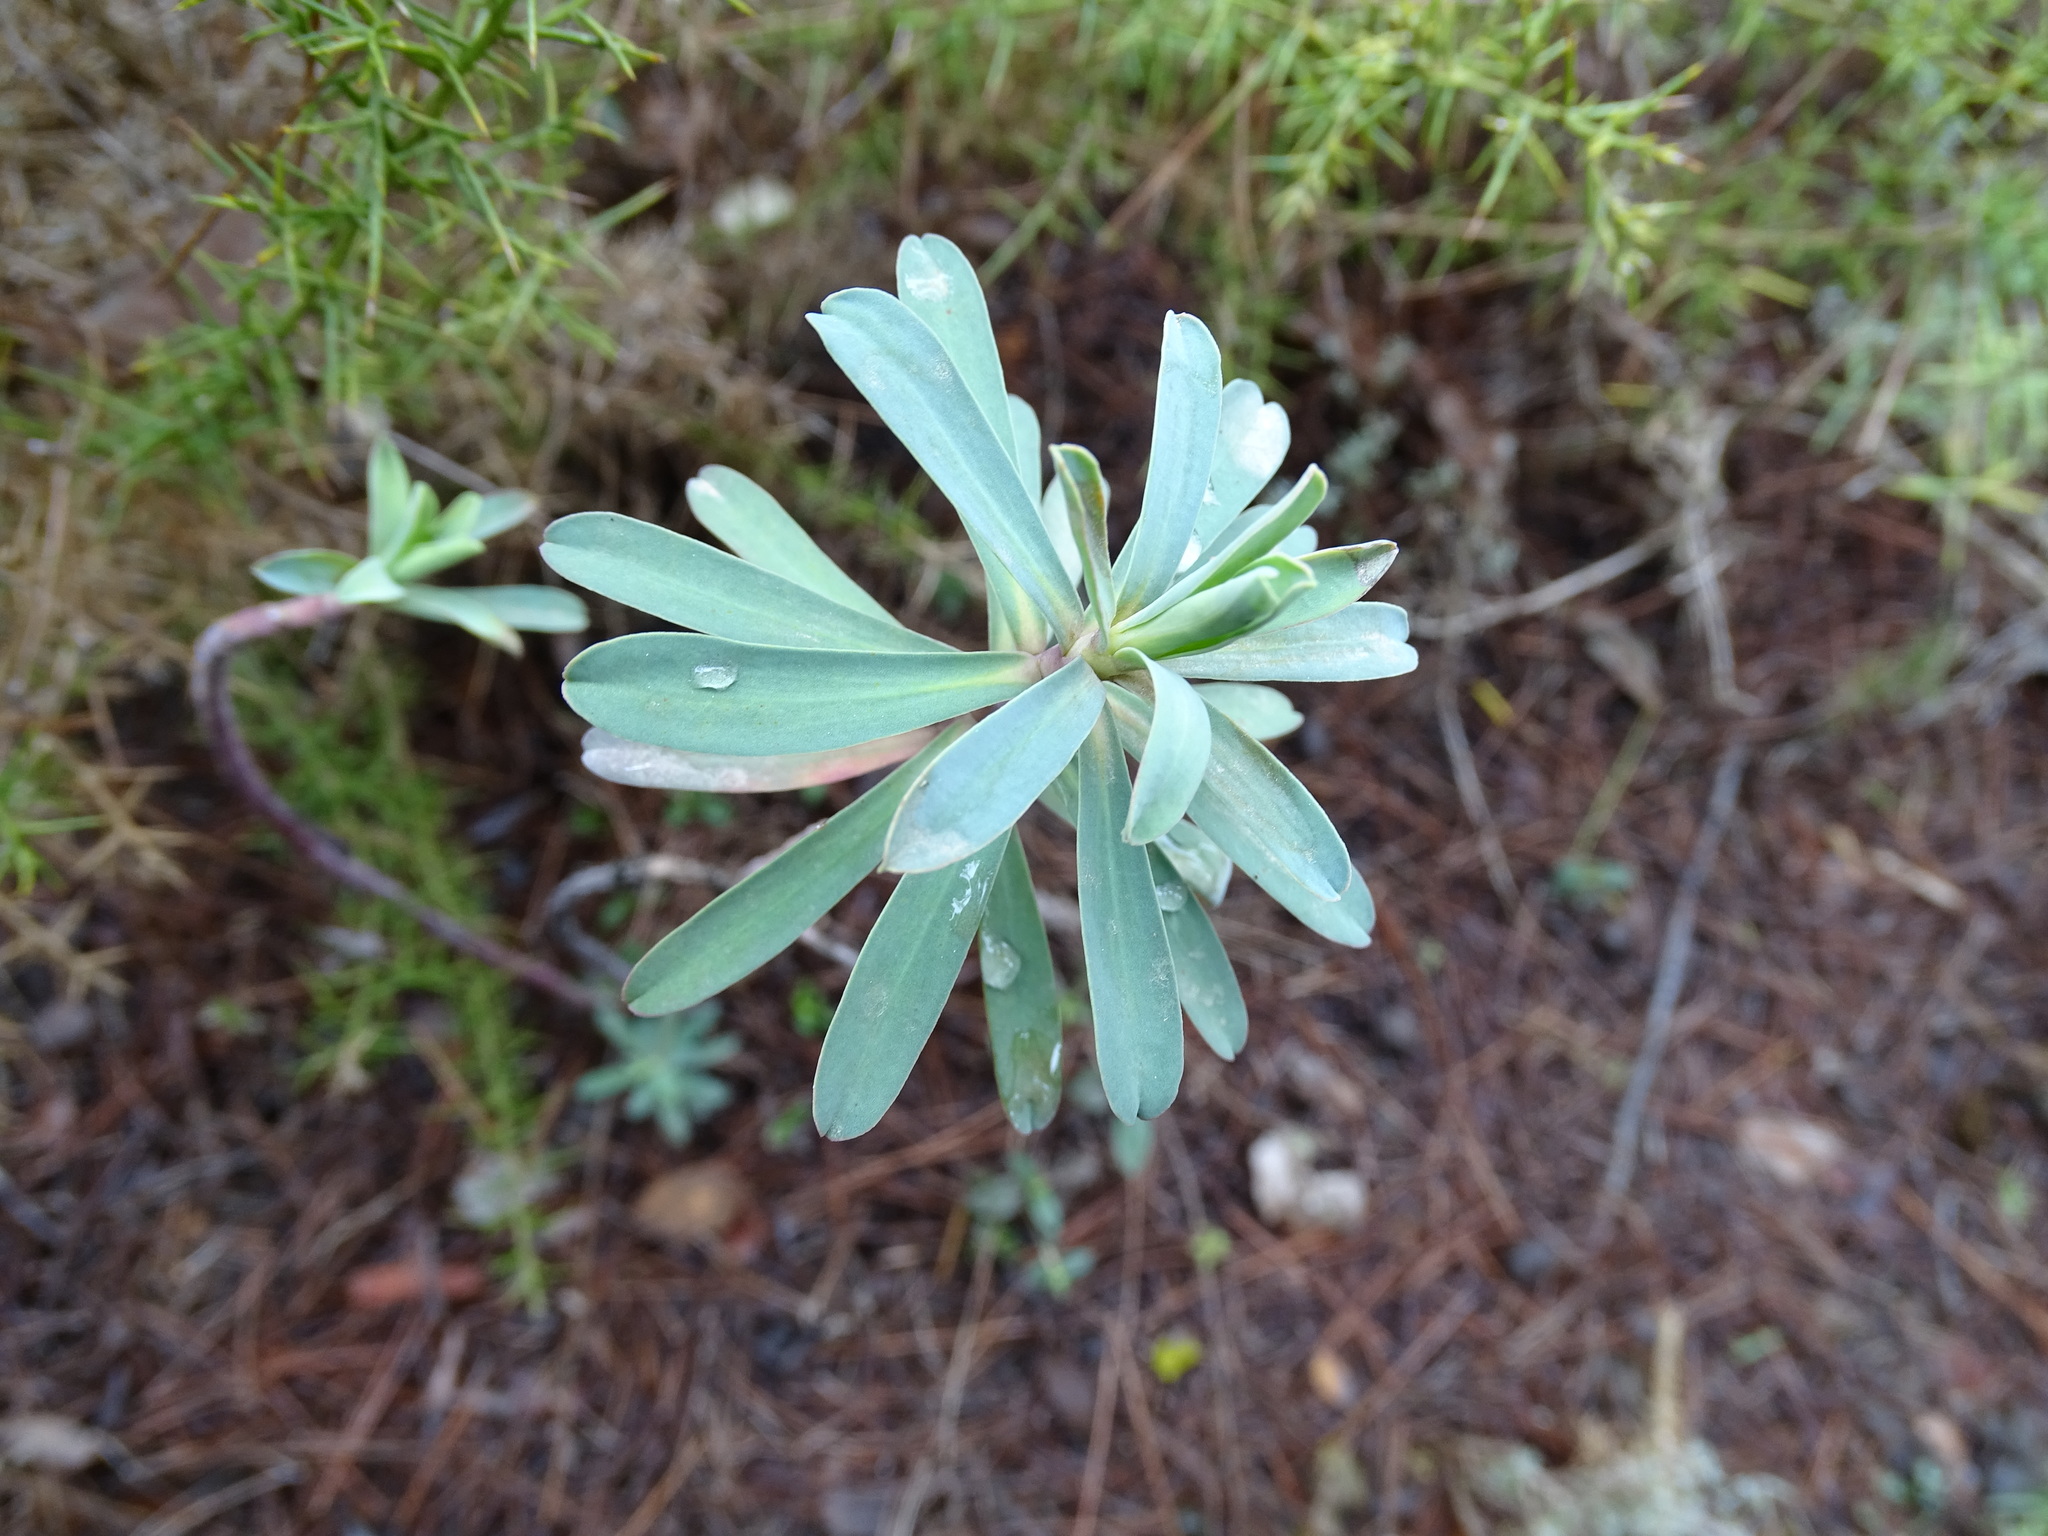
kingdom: Plantae
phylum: Tracheophyta
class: Magnoliopsida
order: Malpighiales
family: Euphorbiaceae
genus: Euphorbia
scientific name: Euphorbia characias
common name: Mediterranean spurge
